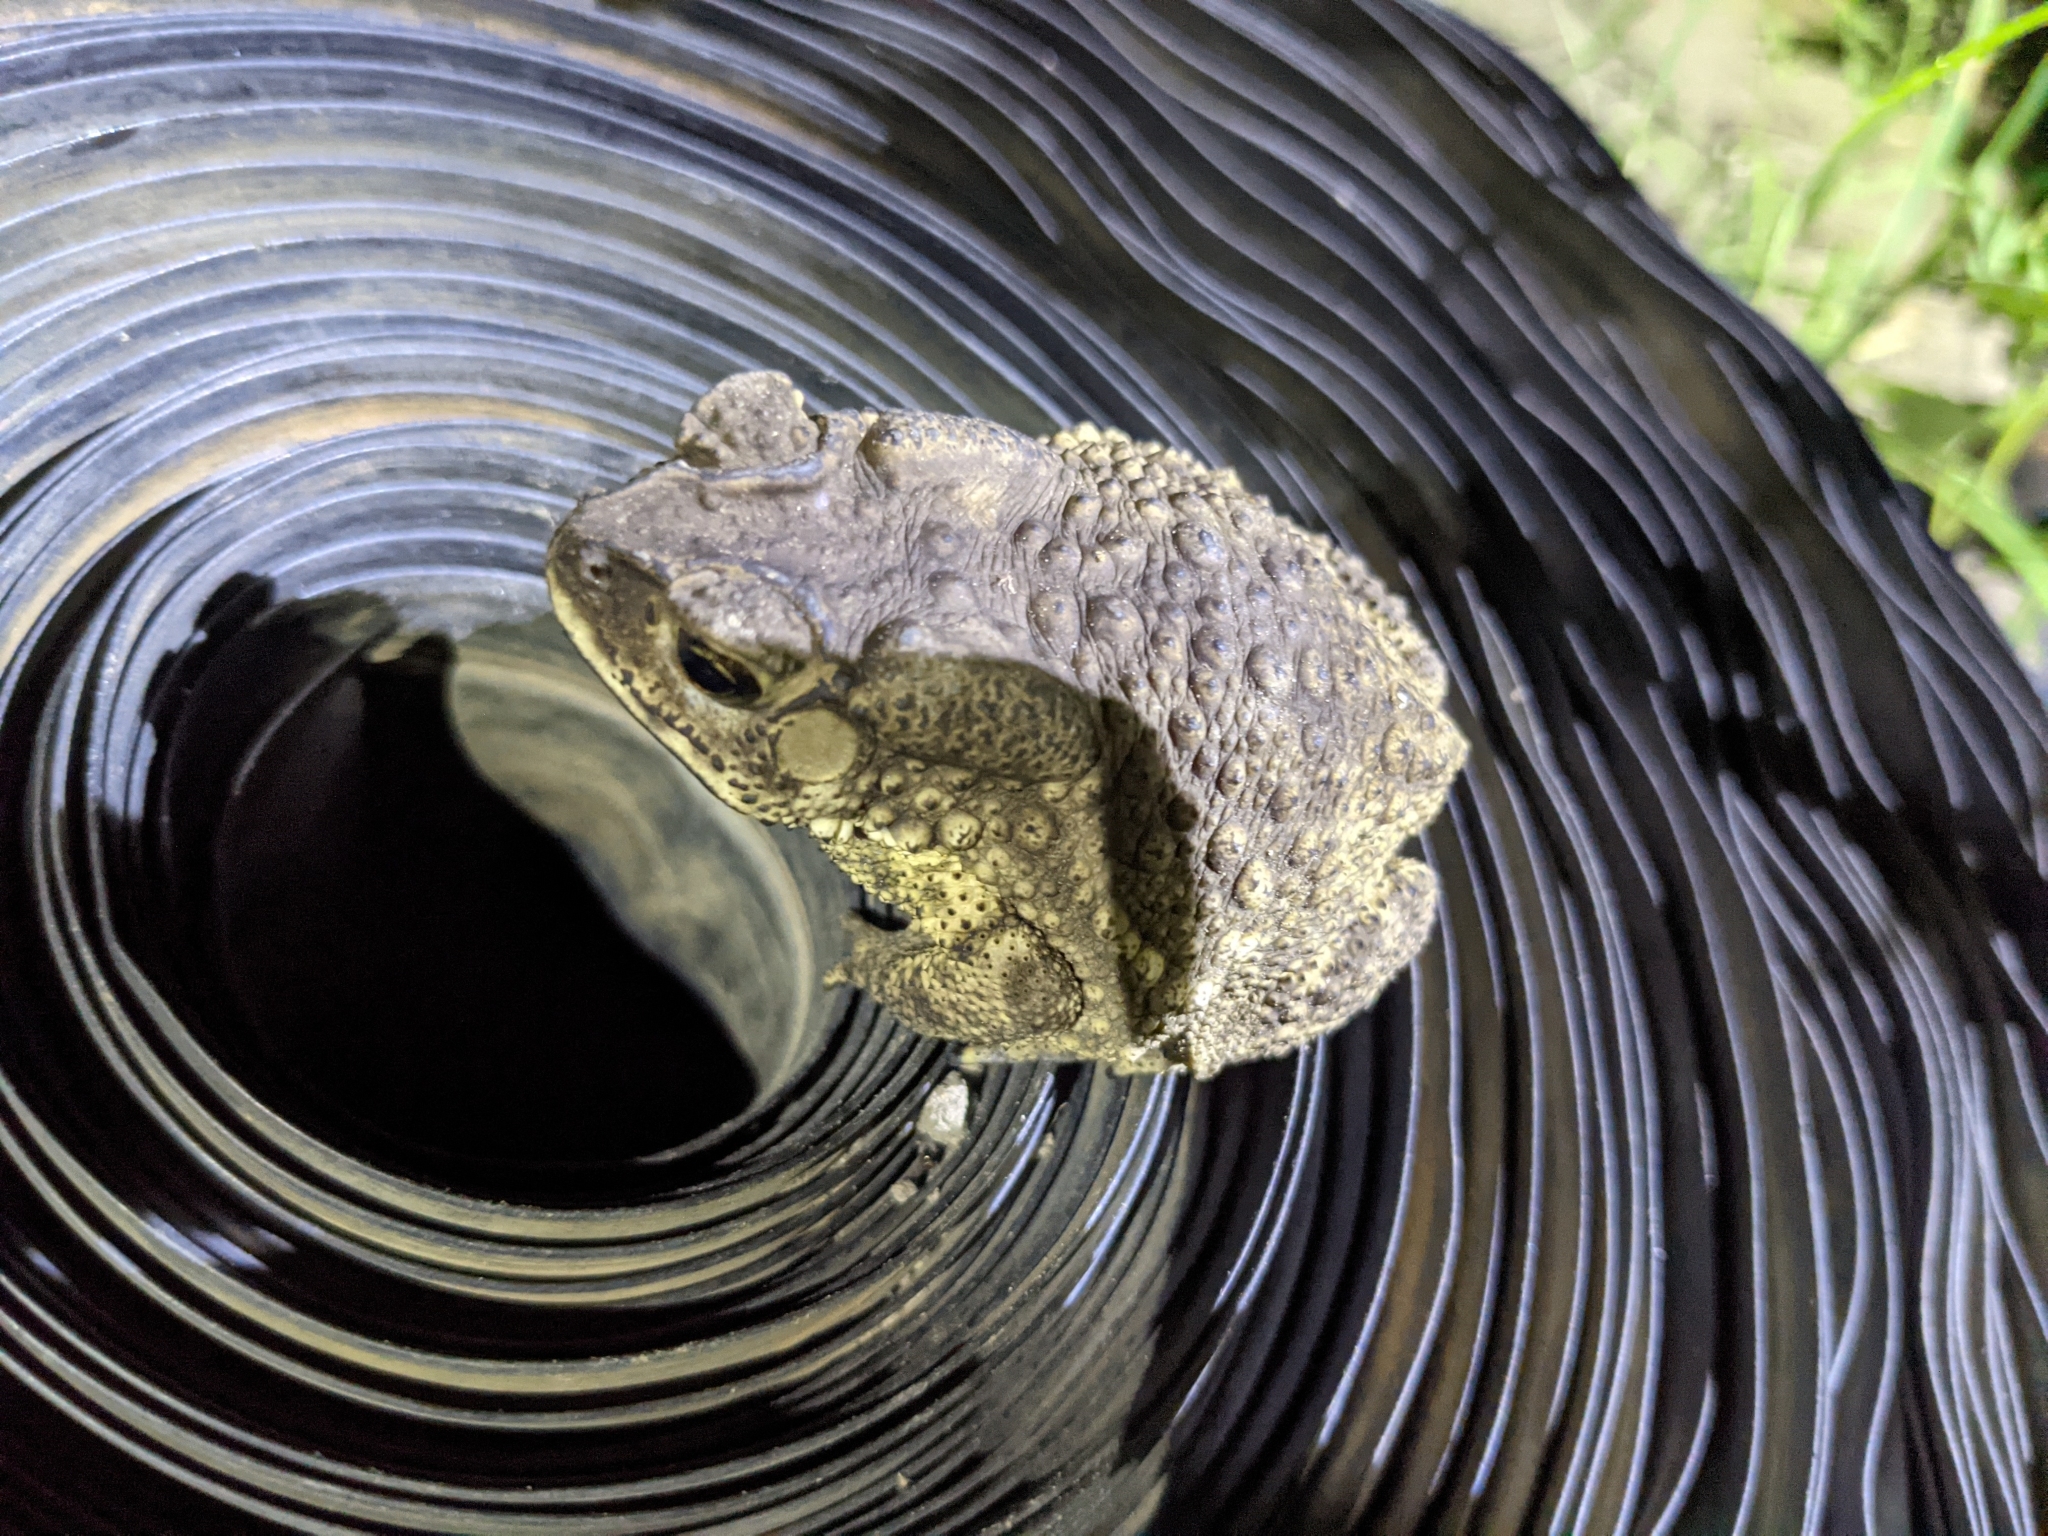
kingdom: Animalia
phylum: Chordata
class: Amphibia
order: Anura
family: Bufonidae
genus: Duttaphrynus
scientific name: Duttaphrynus melanostictus
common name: Common sunda toad
